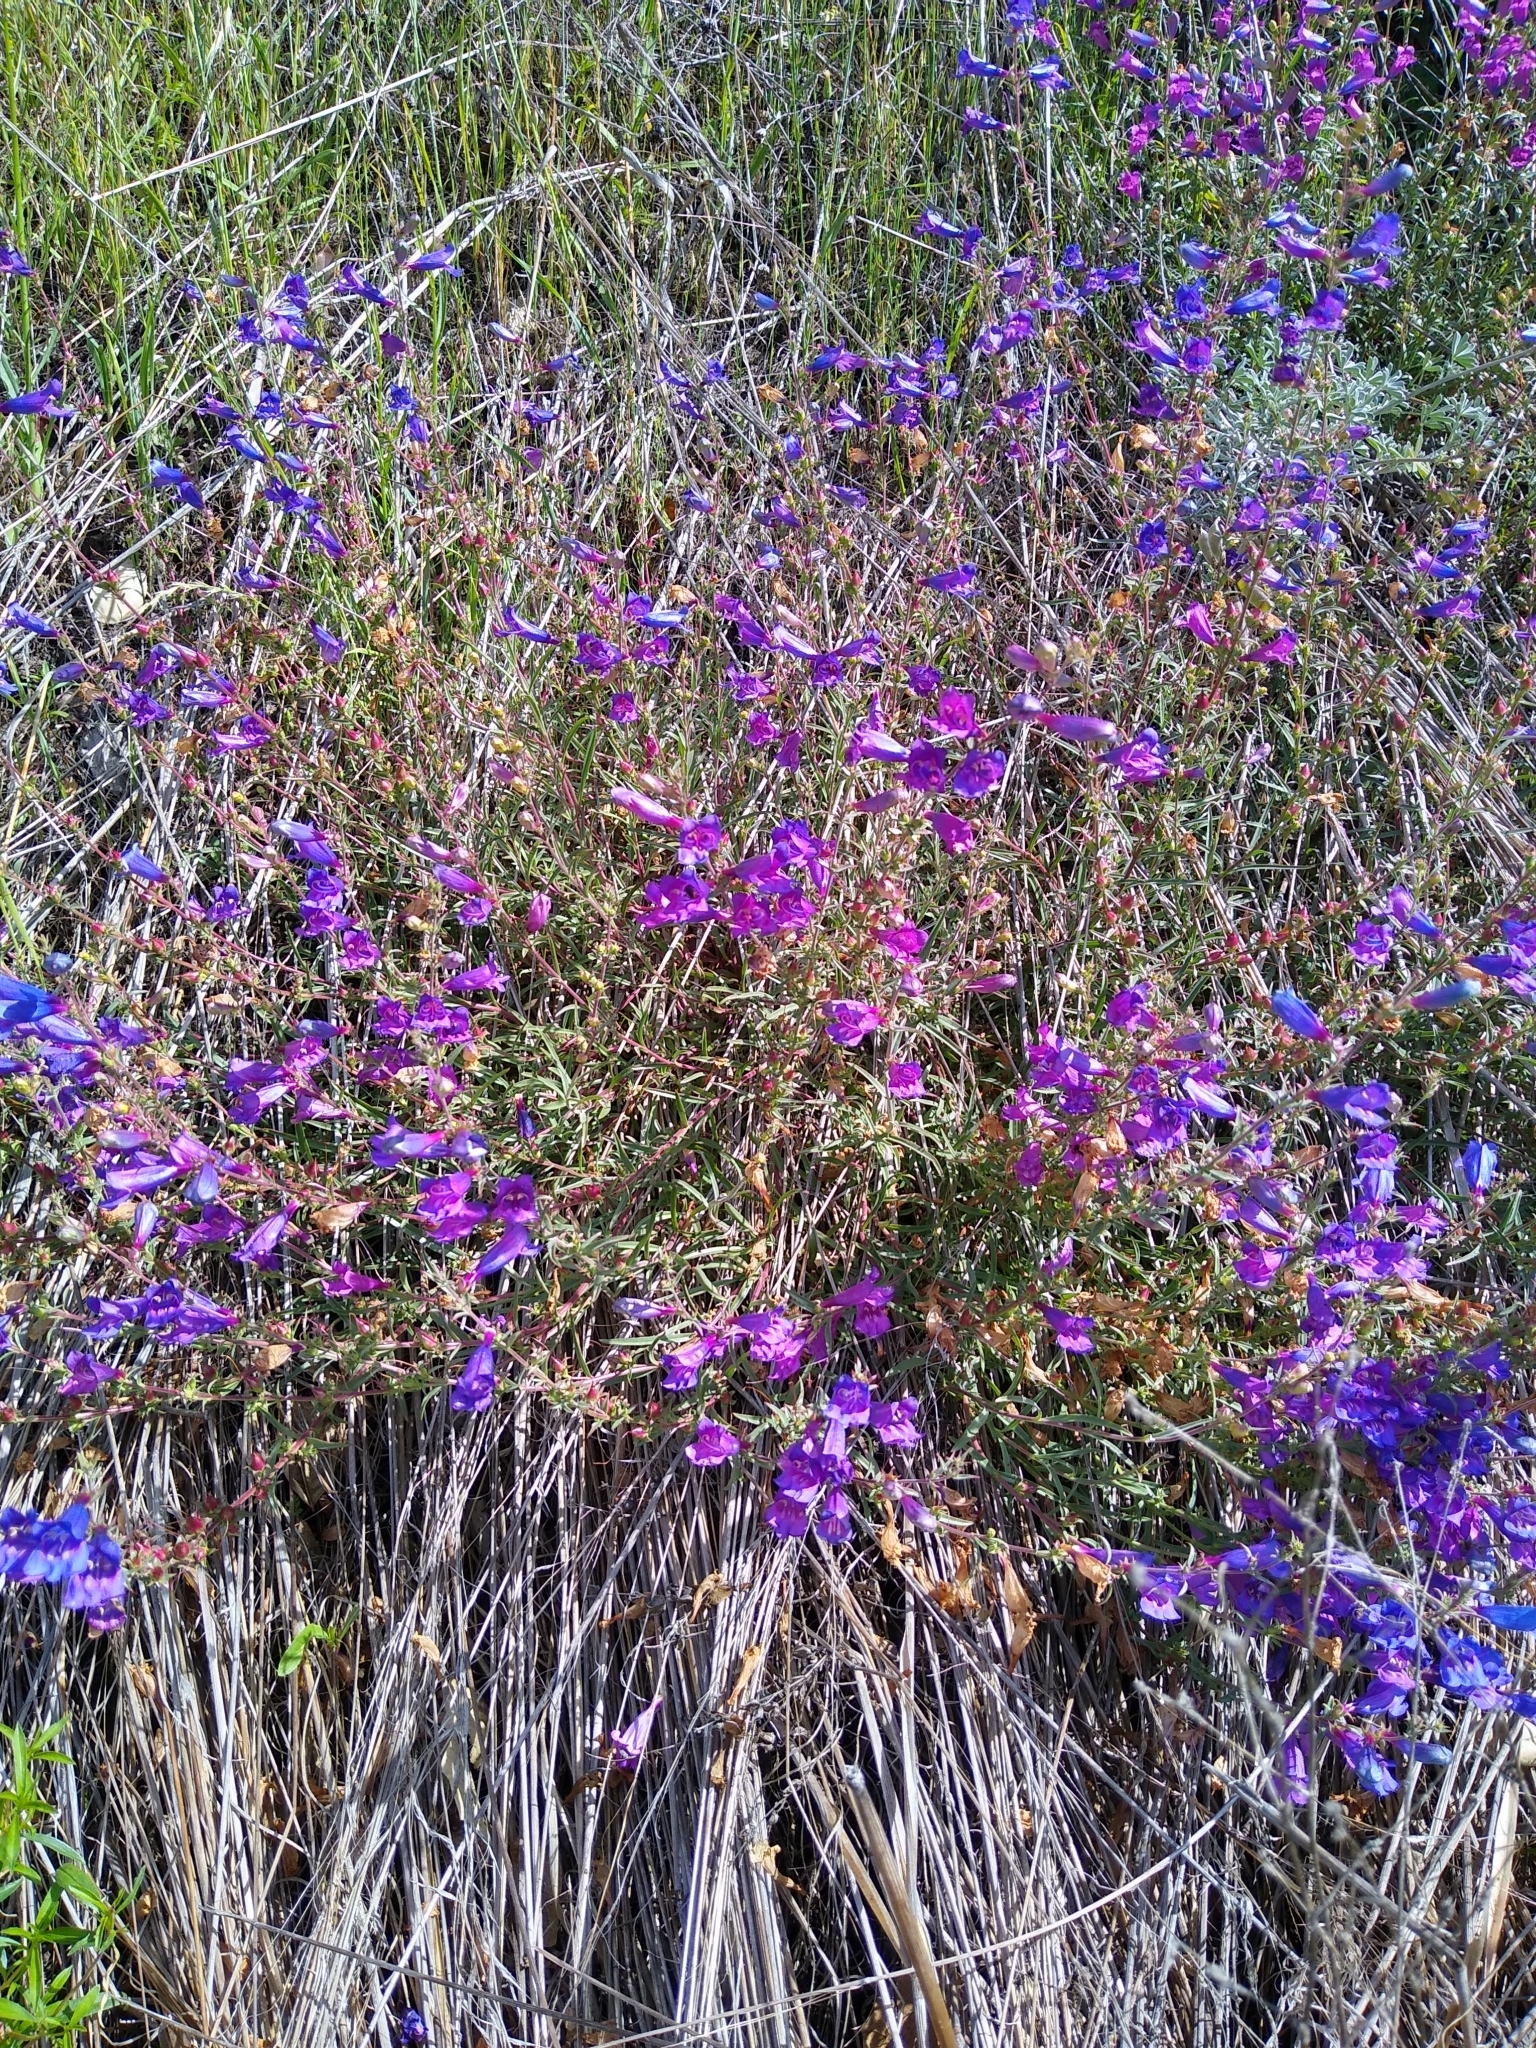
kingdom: Plantae
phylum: Tracheophyta
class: Magnoliopsida
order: Lamiales
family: Plantaginaceae
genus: Penstemon
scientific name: Penstemon heterophyllus
